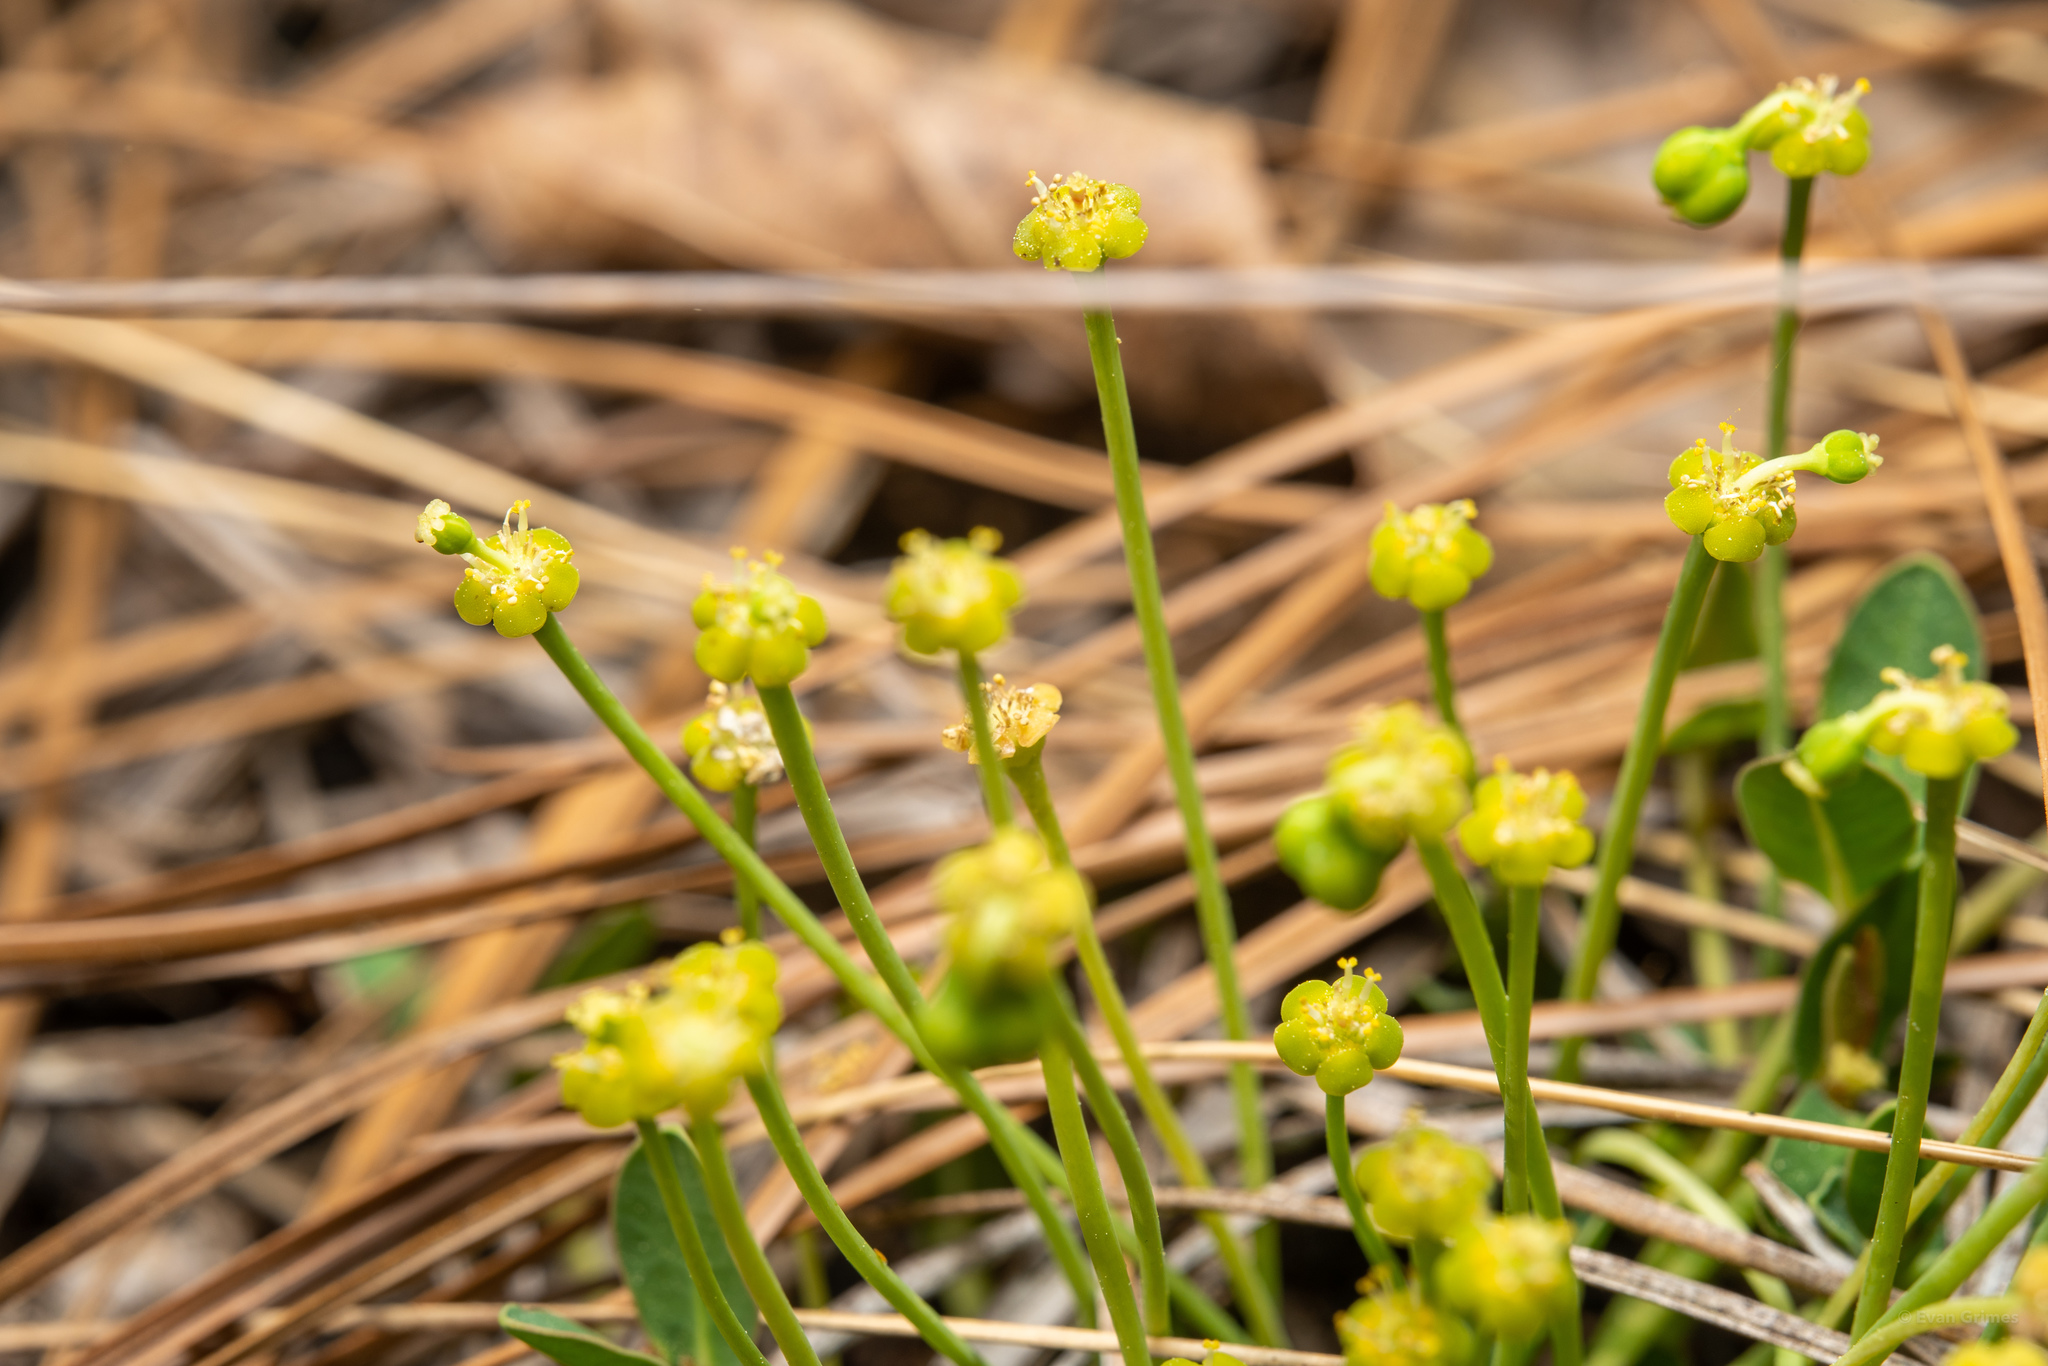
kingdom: Plantae
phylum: Tracheophyta
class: Magnoliopsida
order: Malpighiales
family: Euphorbiaceae
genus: Euphorbia
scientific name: Euphorbia ipecacuanhae
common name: Carolina ipecac
